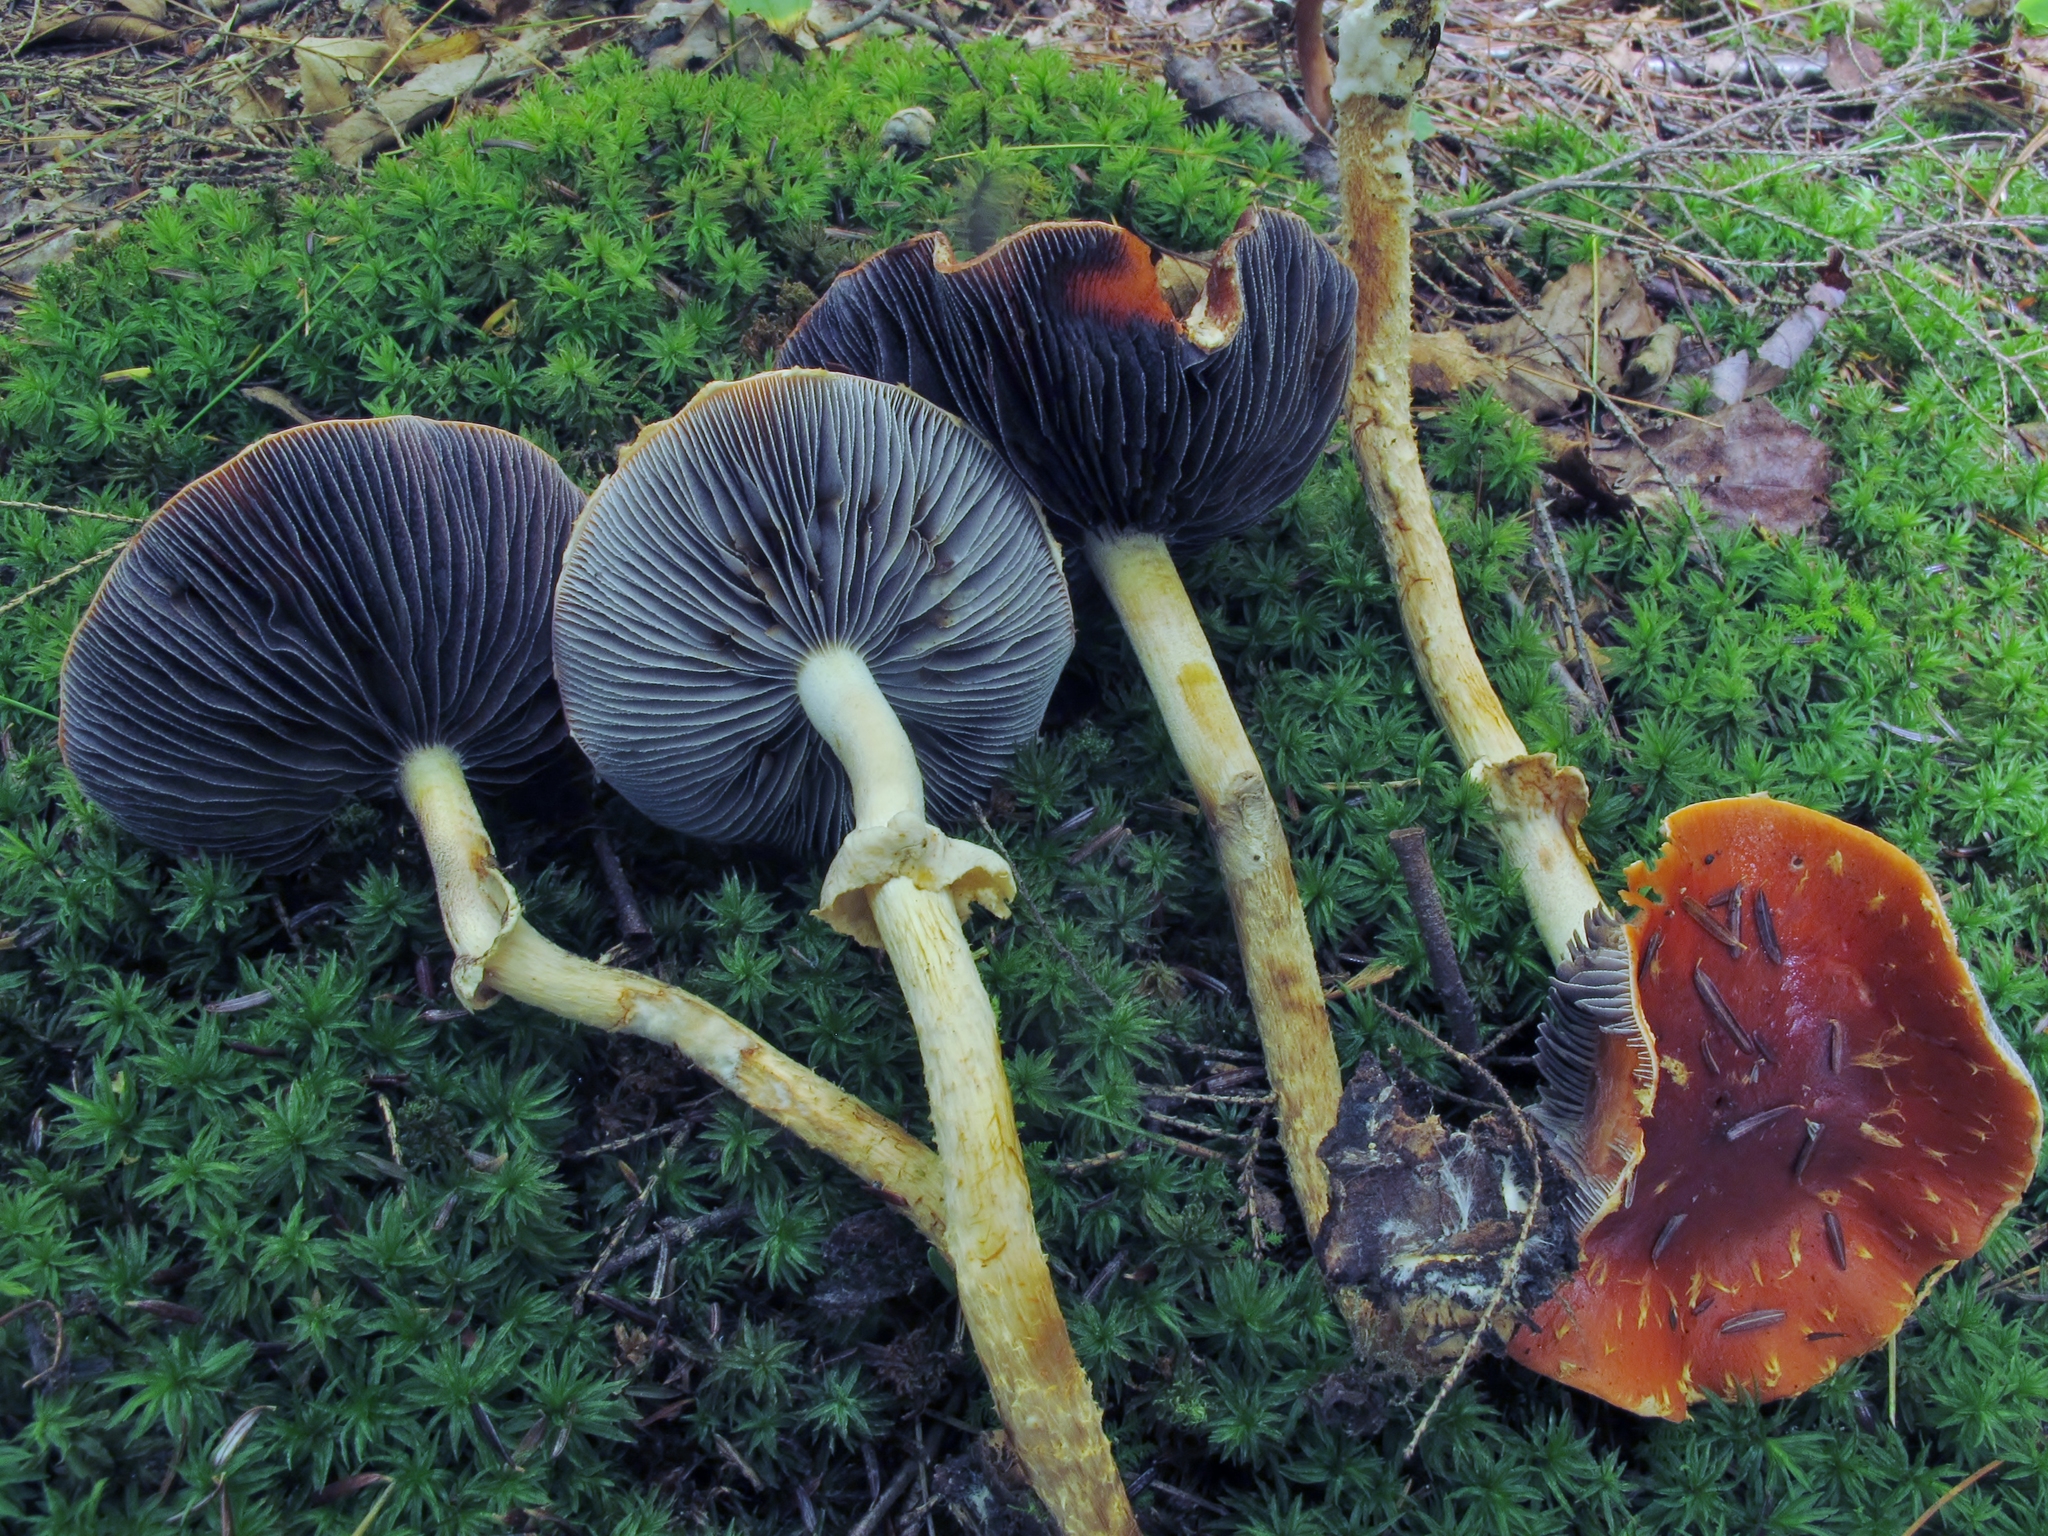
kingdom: Fungi
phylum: Basidiomycota
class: Agaricomycetes
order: Agaricales
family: Strophariaceae
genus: Leratiomyces
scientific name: Leratiomyces squamosus
